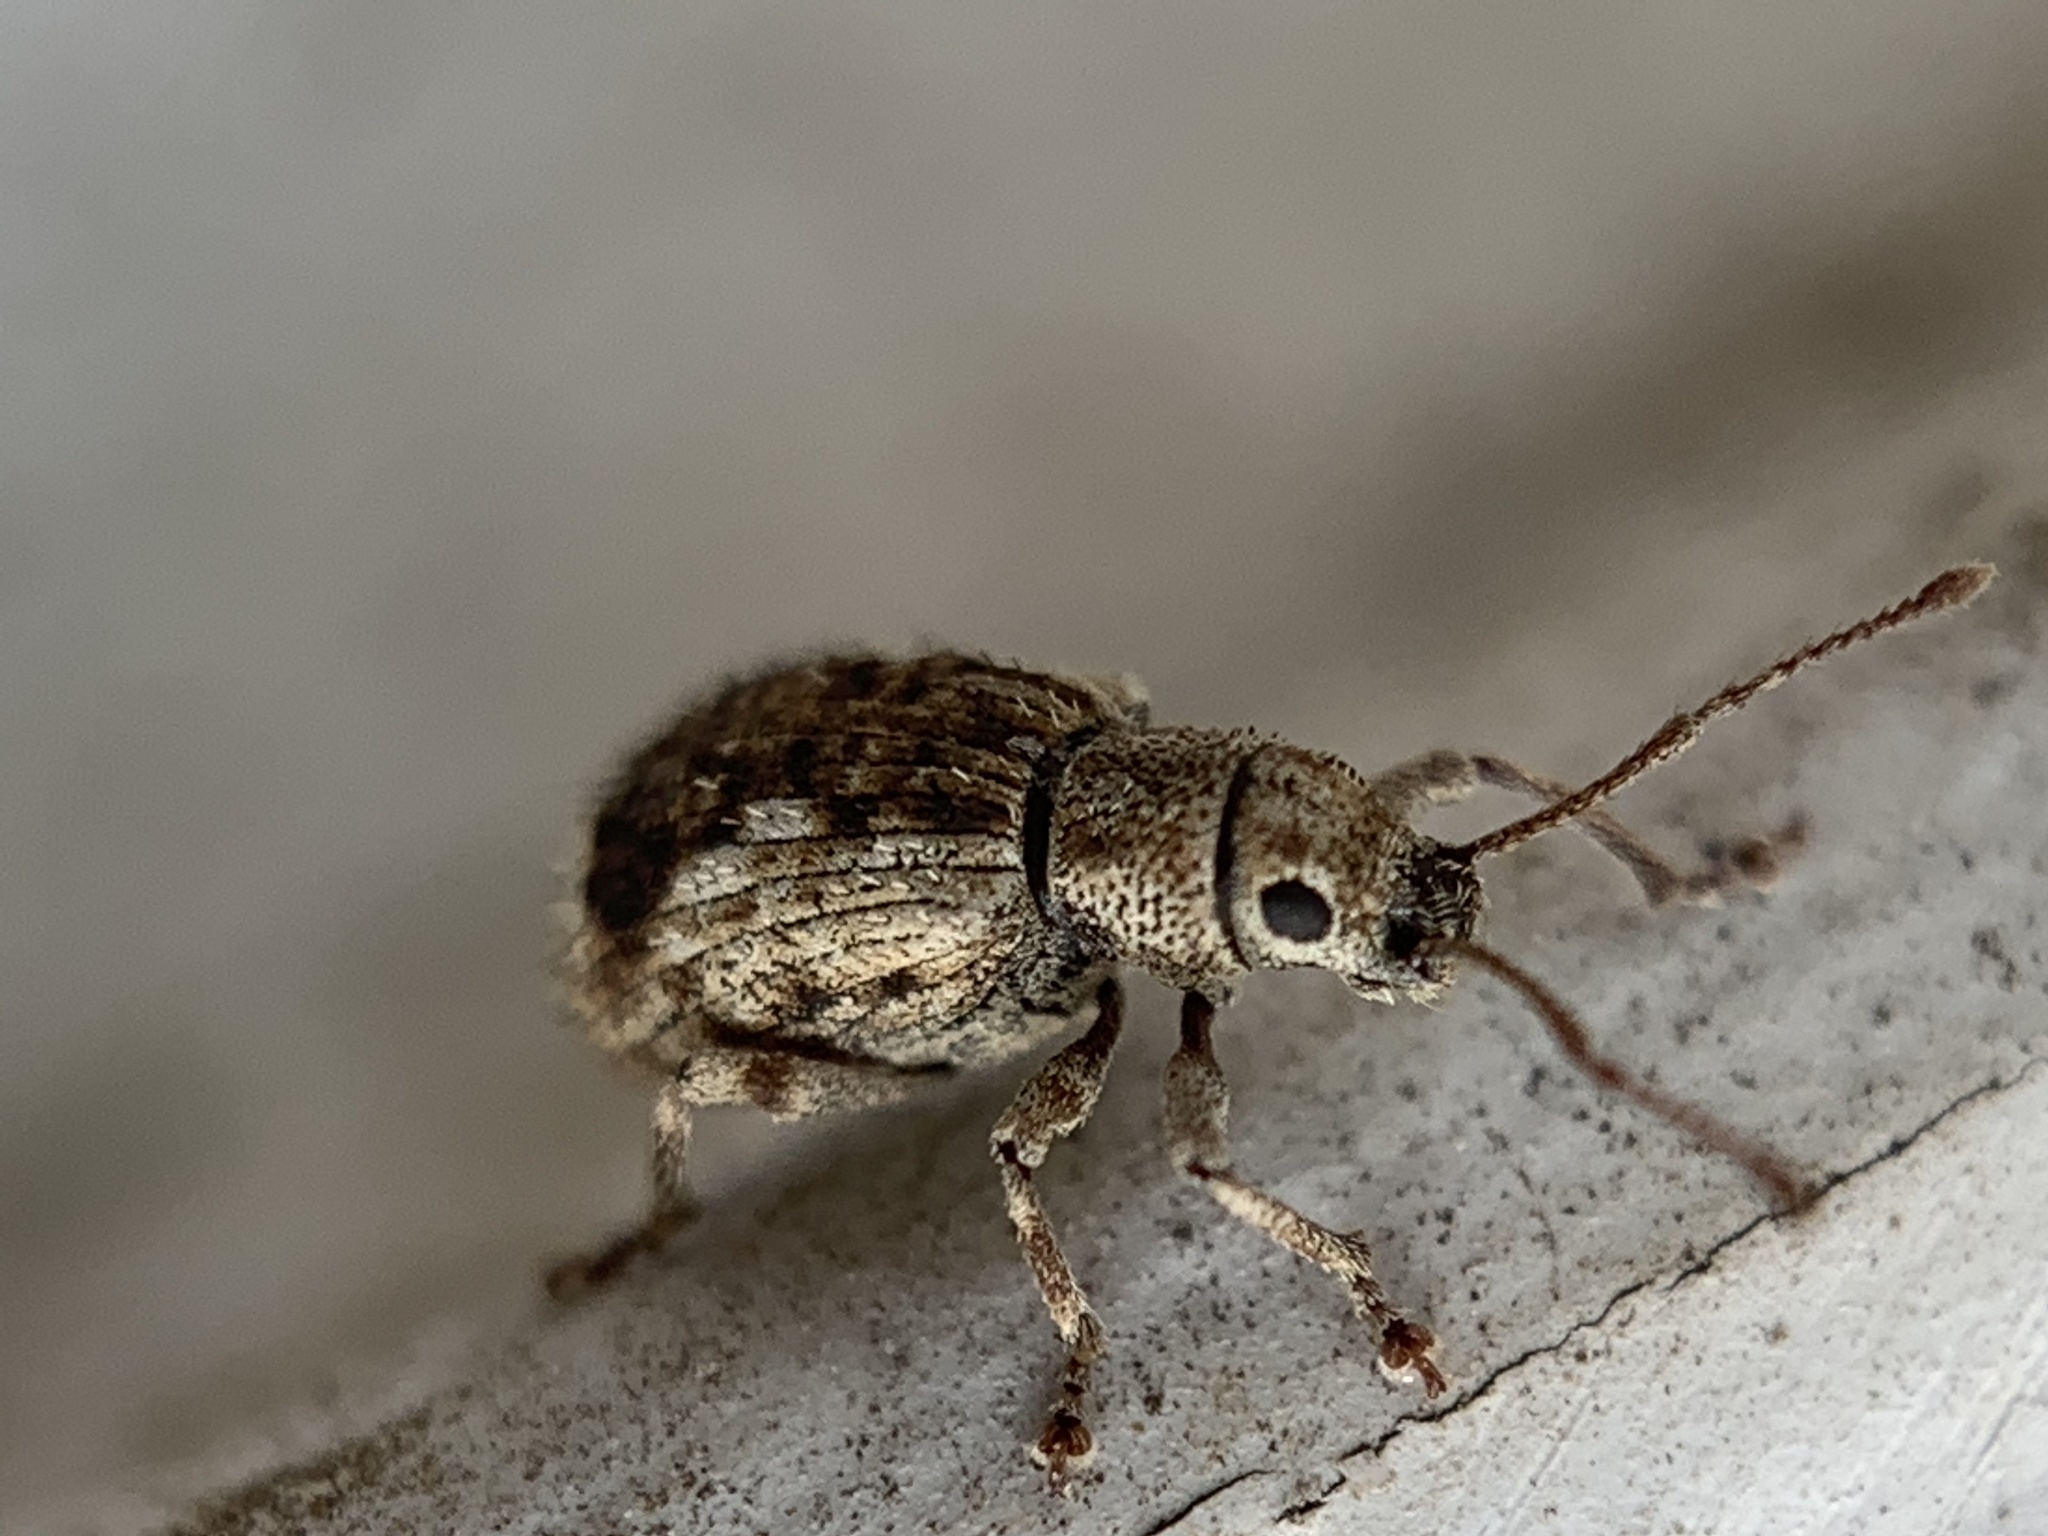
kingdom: Animalia
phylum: Arthropoda
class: Insecta
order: Coleoptera
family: Curculionidae
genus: Pseudoedophrys
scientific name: Pseudoedophrys hilleri
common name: Weevil
